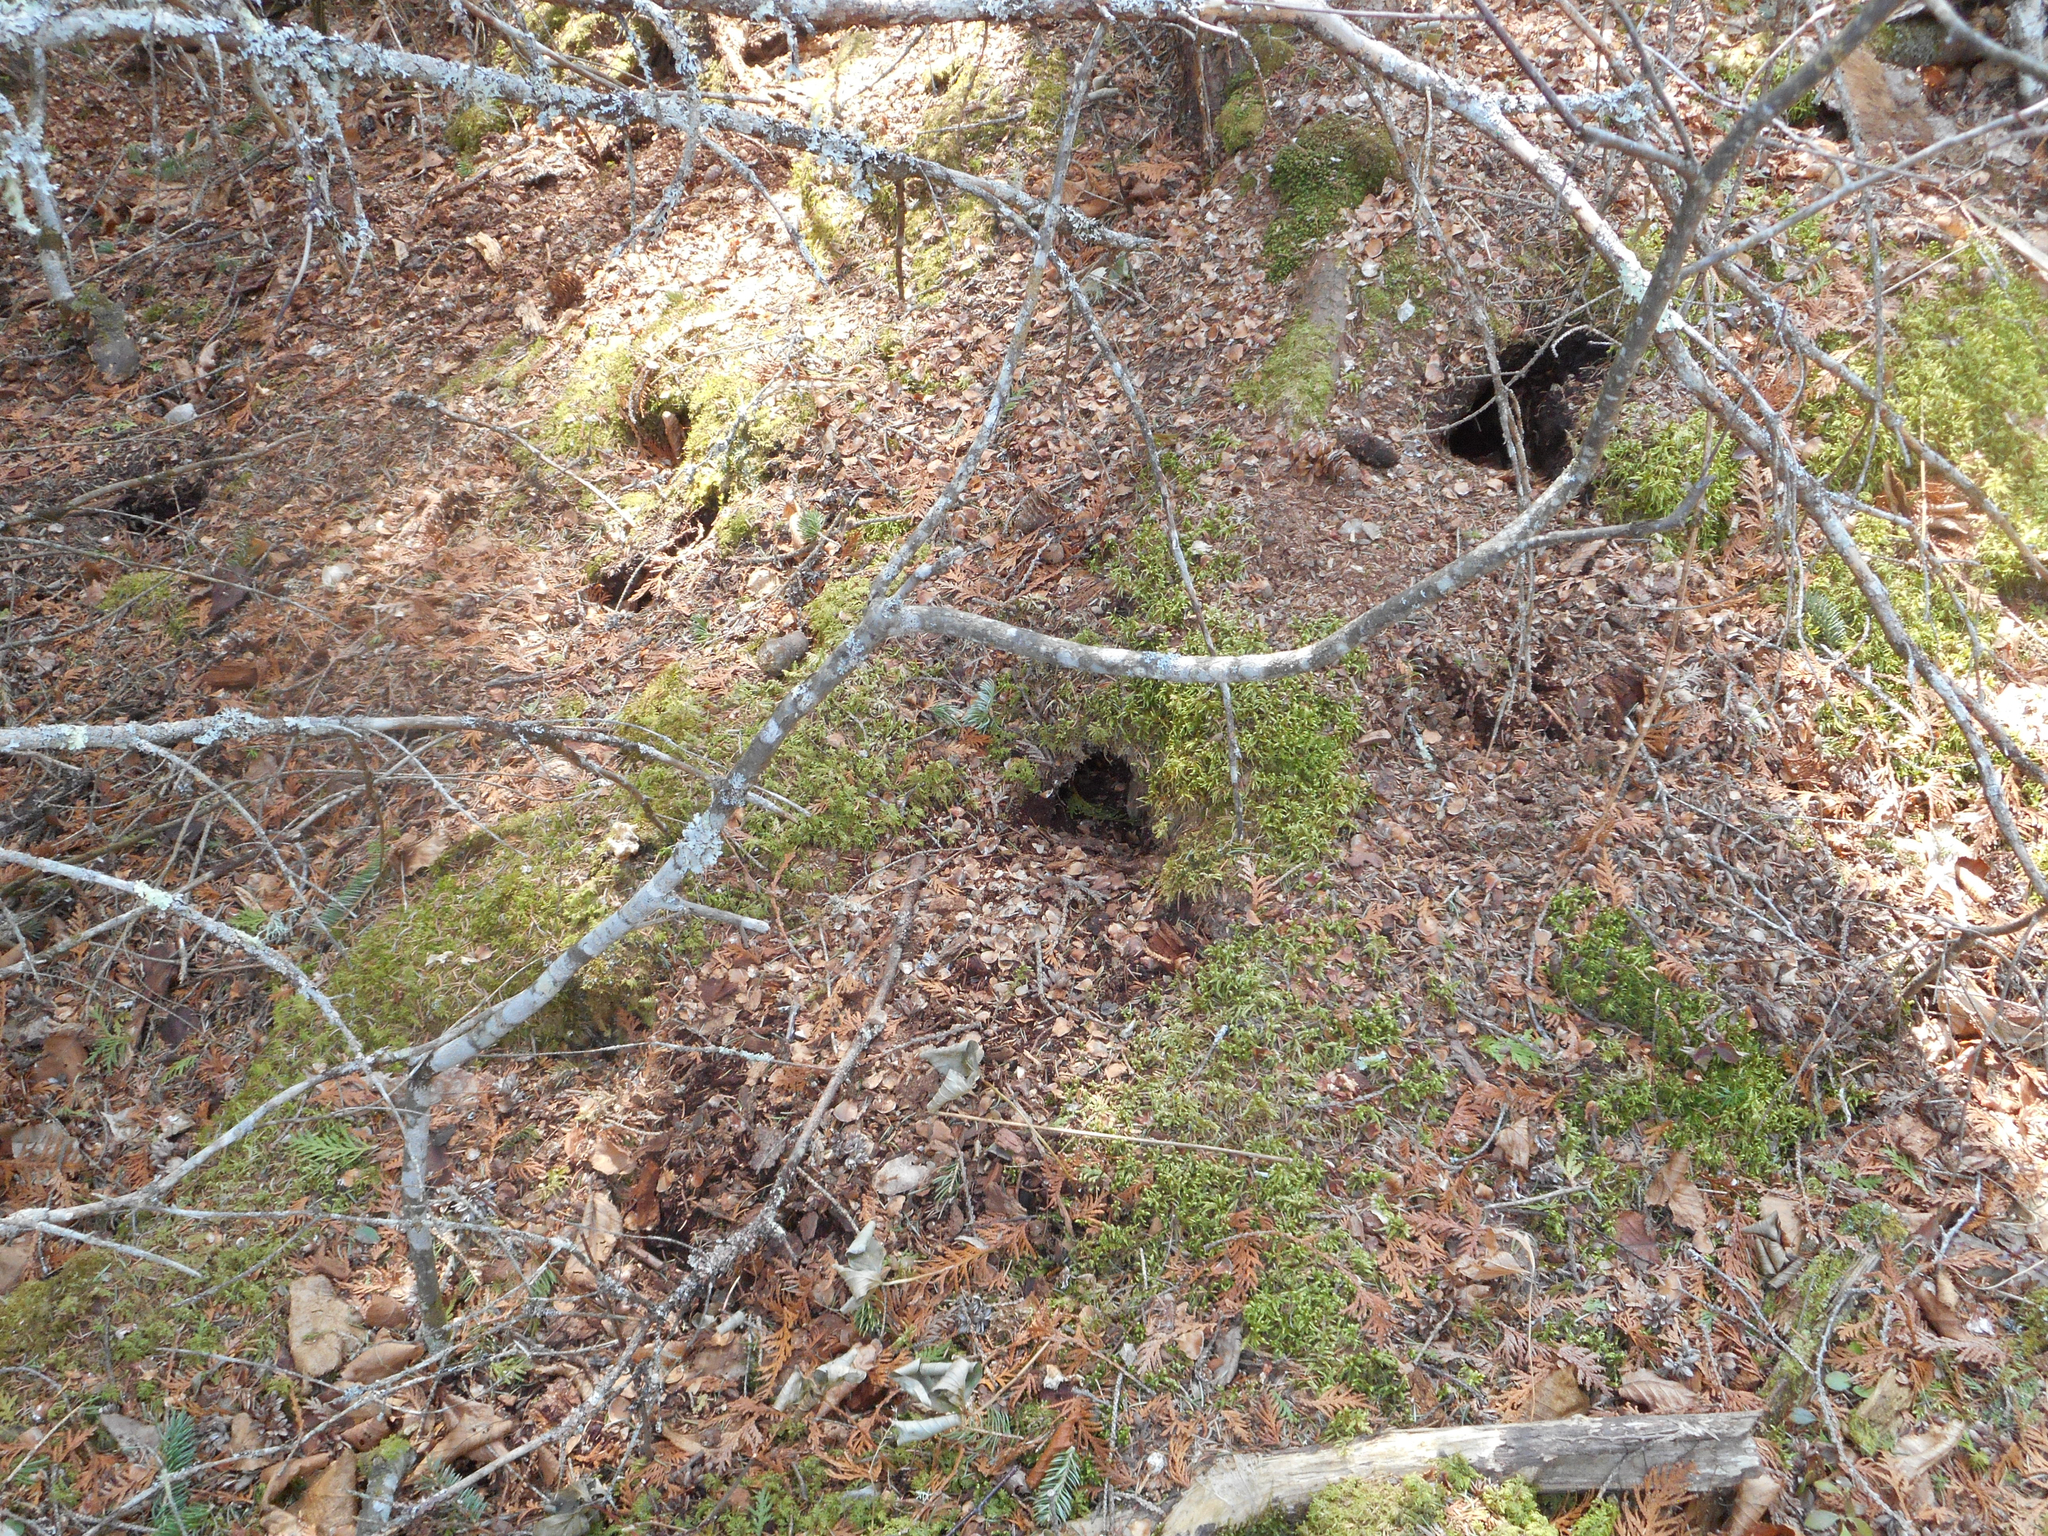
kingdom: Animalia
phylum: Chordata
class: Mammalia
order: Rodentia
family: Sciuridae
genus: Tamiasciurus
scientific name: Tamiasciurus hudsonicus
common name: Red squirrel
